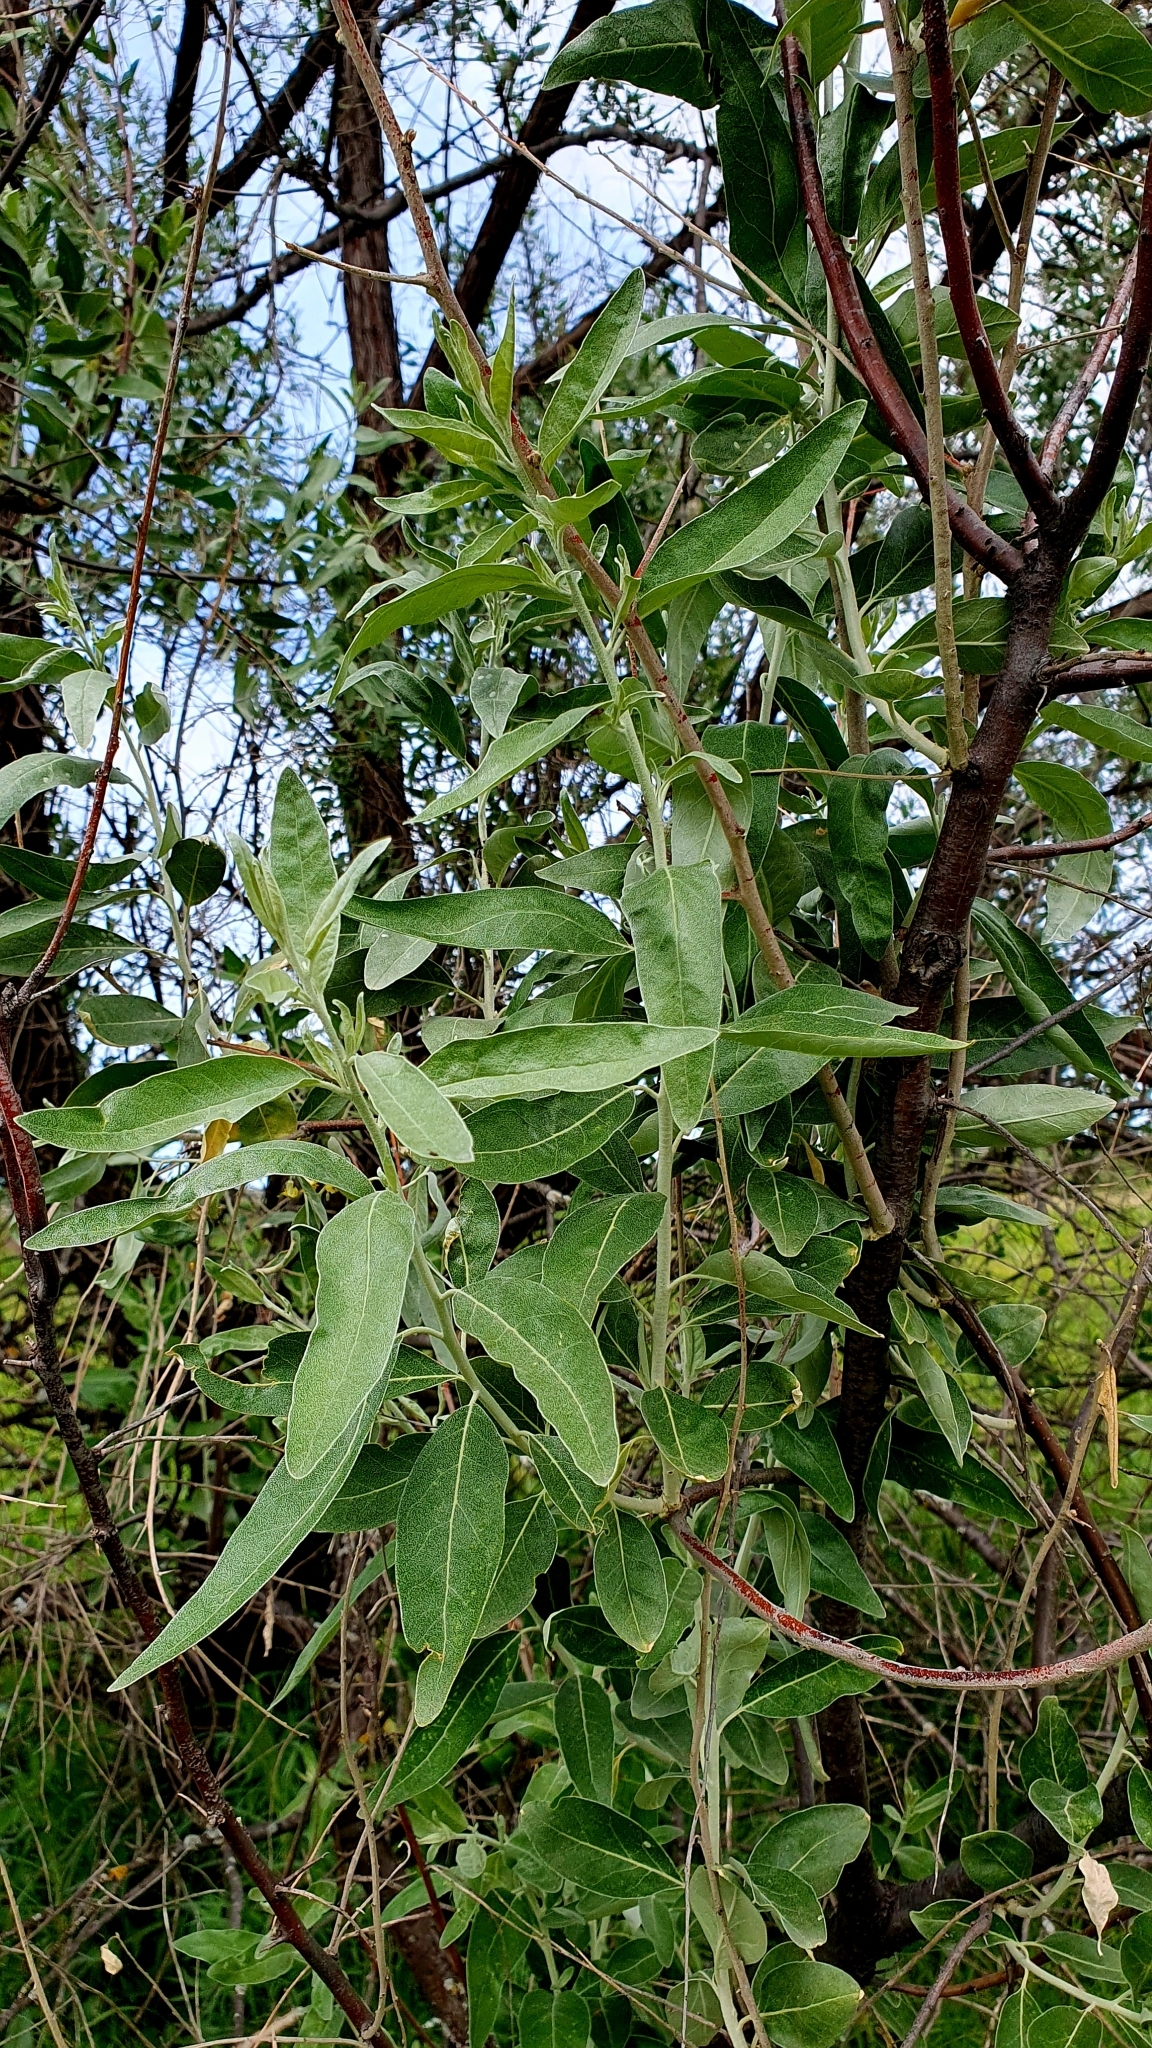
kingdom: Plantae
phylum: Tracheophyta
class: Magnoliopsida
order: Rosales
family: Elaeagnaceae
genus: Elaeagnus
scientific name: Elaeagnus angustifolia
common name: Russian olive
